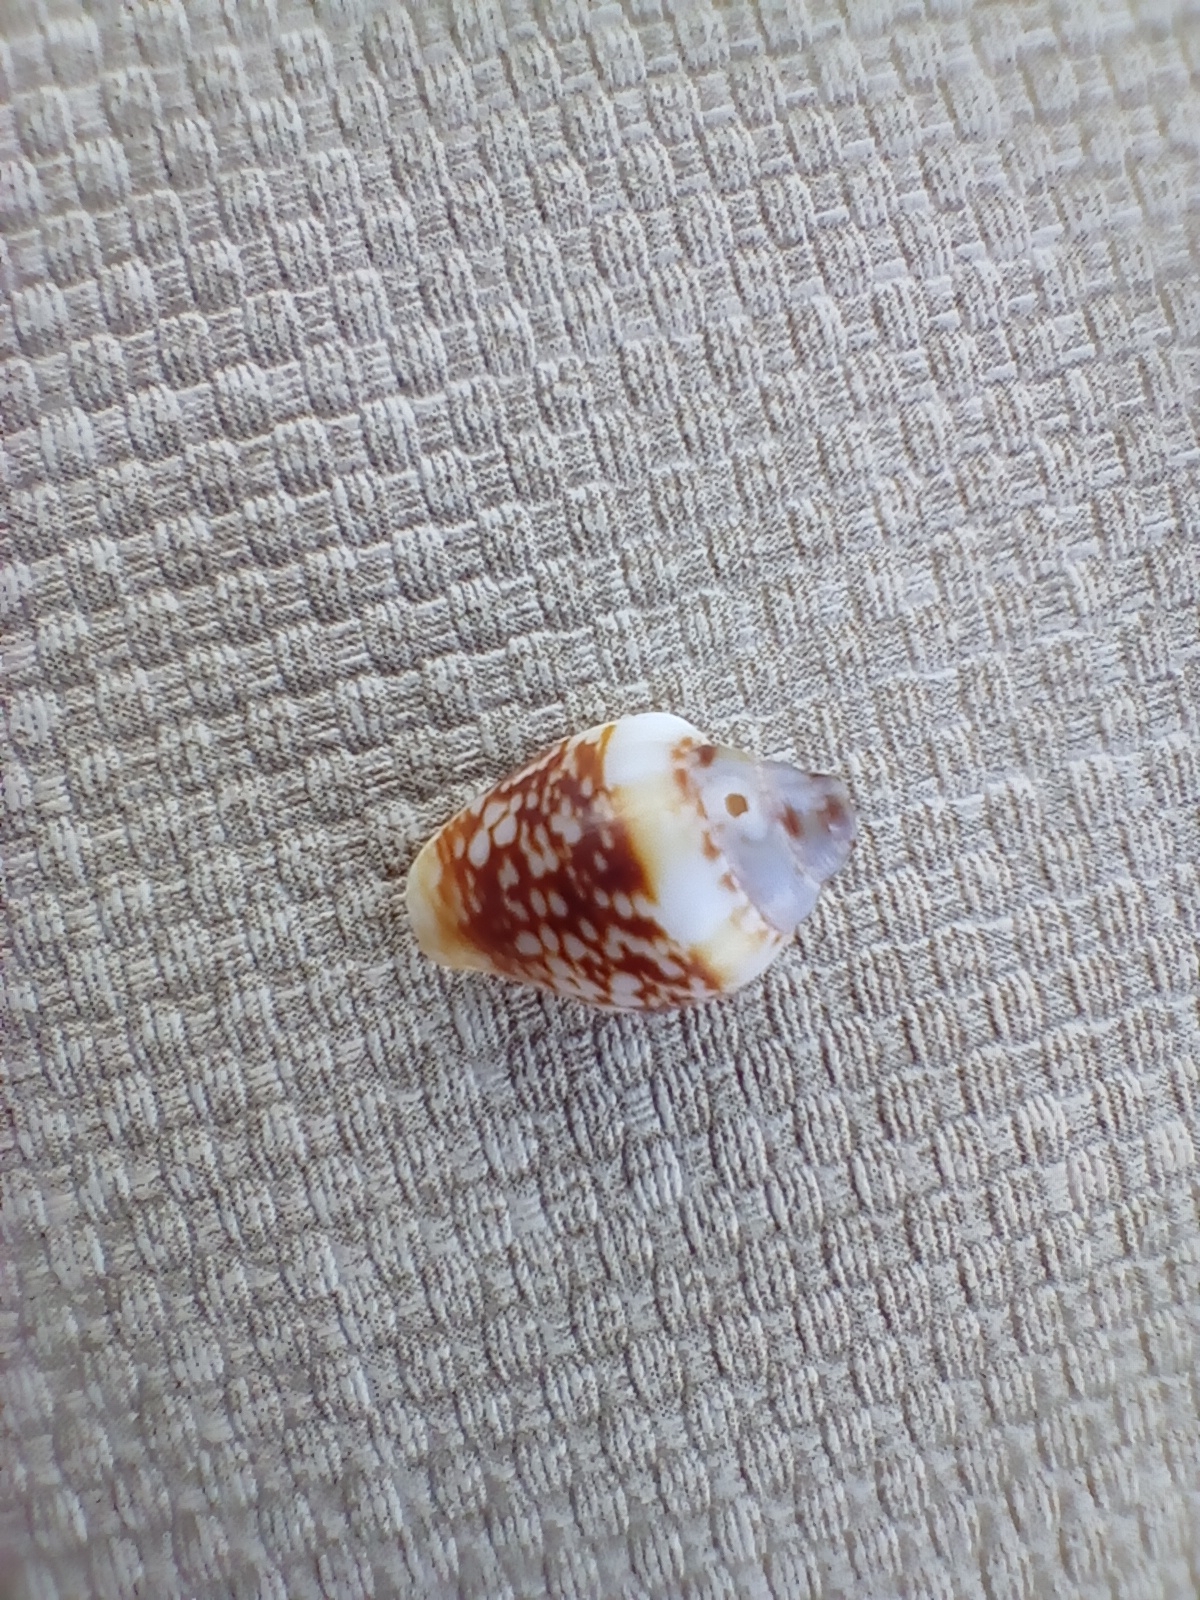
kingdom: Animalia
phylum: Mollusca
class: Gastropoda
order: Neogastropoda
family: Columbellidae
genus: Columbella
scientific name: Columbella rustica
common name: Rustic dove shell
